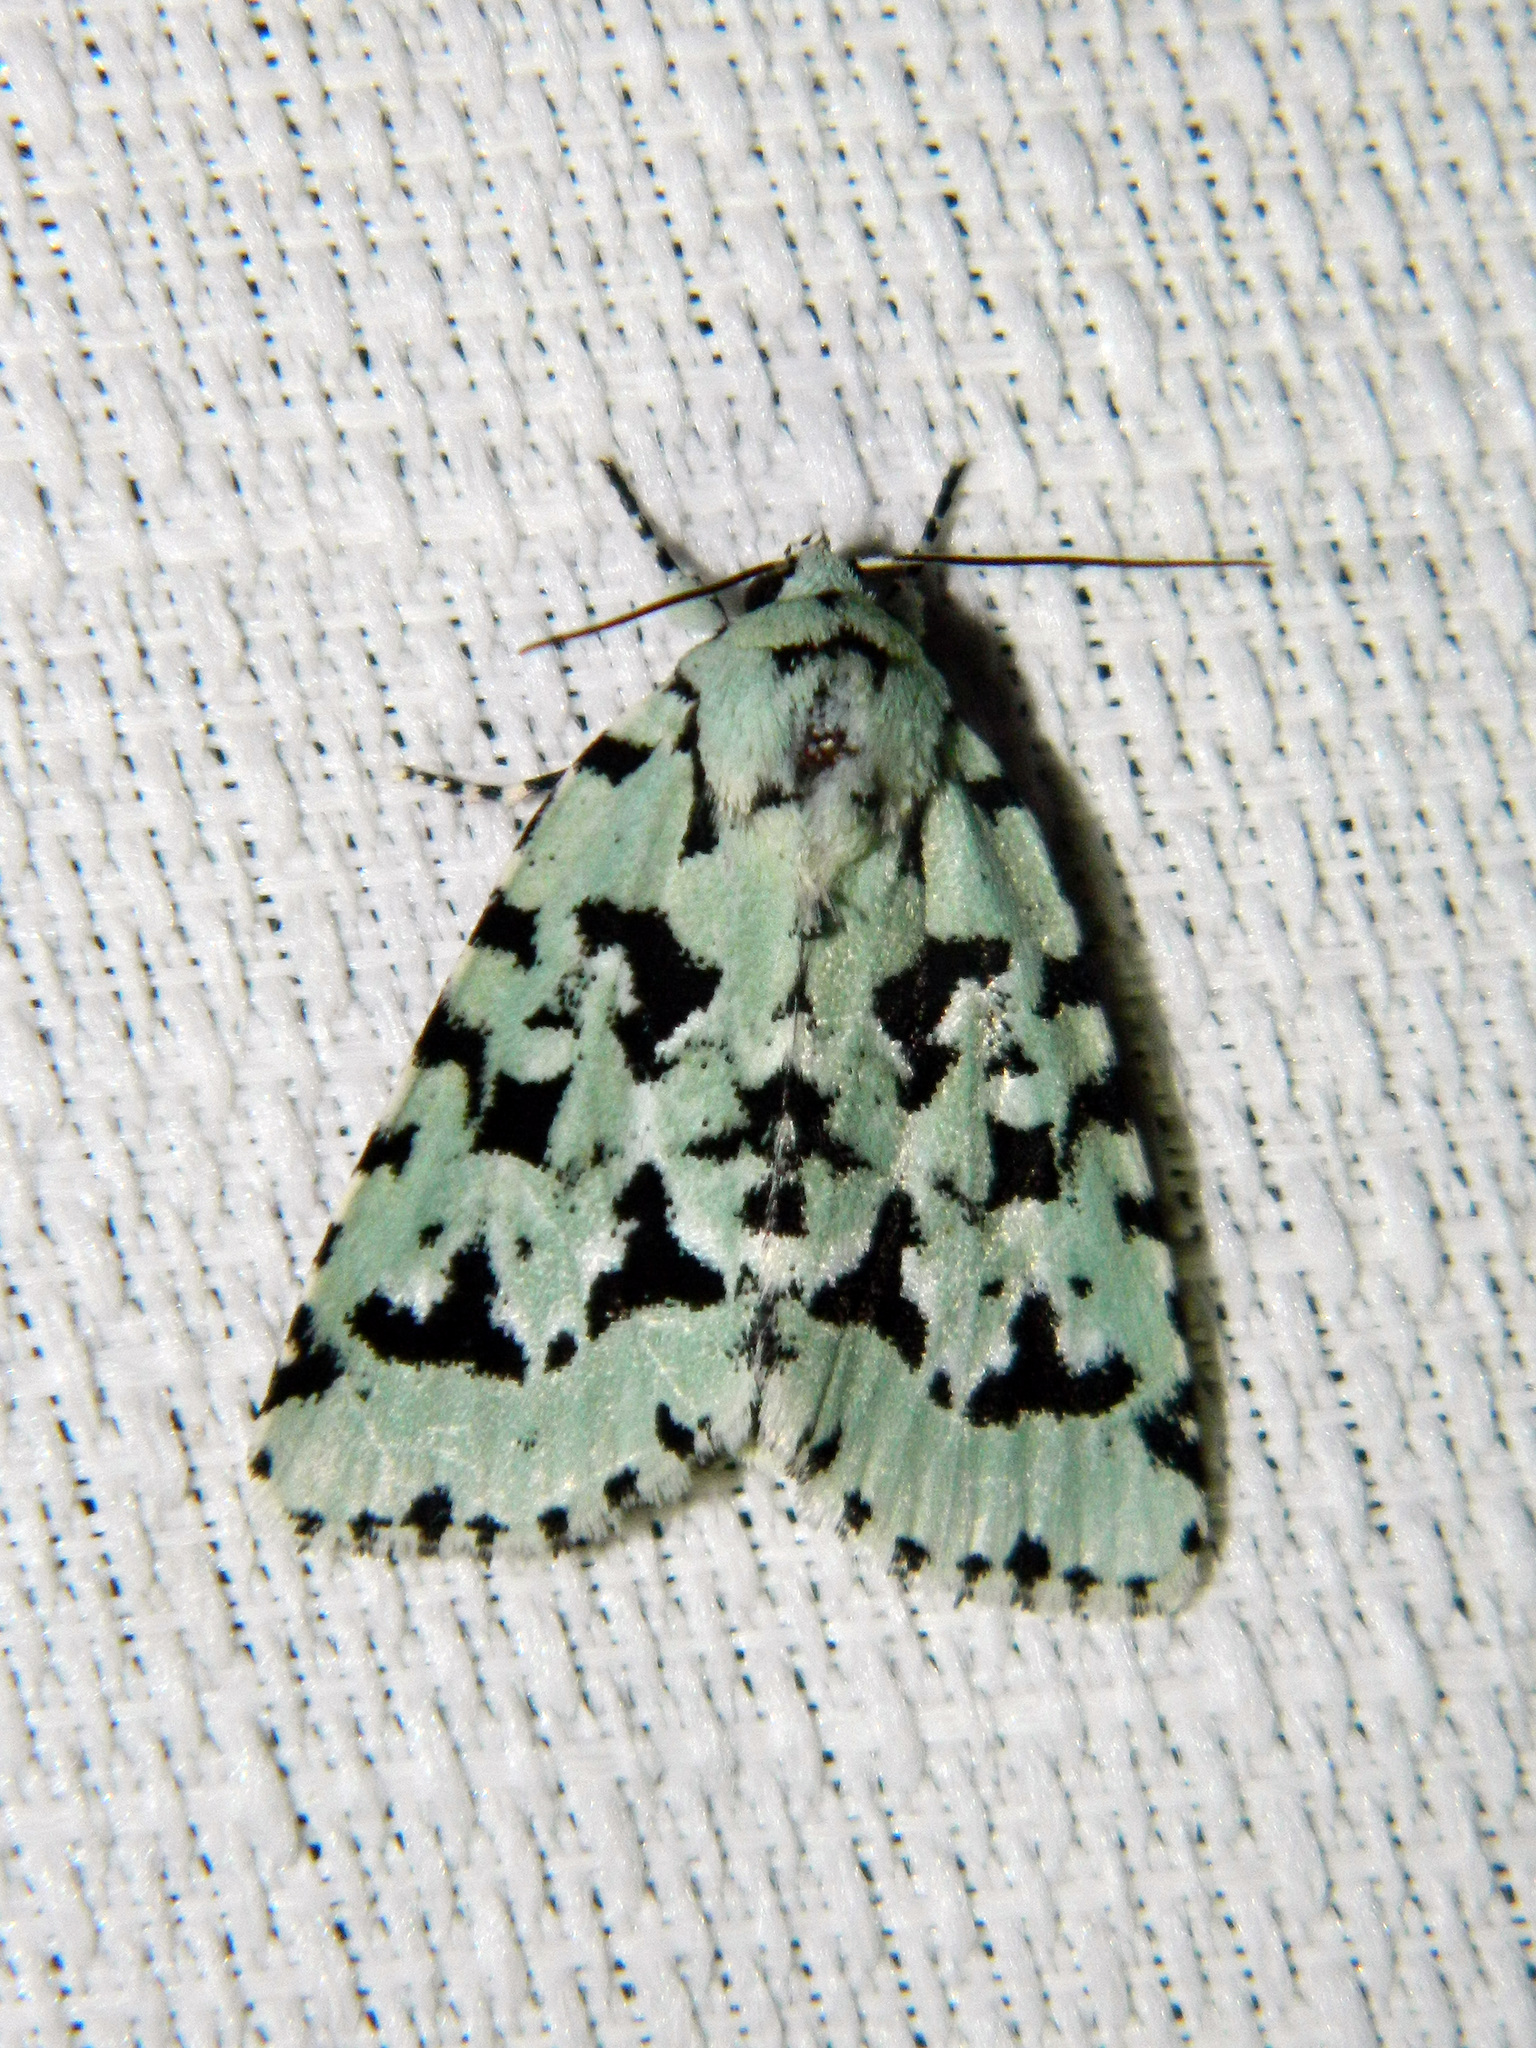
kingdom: Animalia
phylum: Arthropoda
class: Insecta
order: Lepidoptera
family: Noctuidae
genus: Acronicta
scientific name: Acronicta fallax
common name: Green marvel
